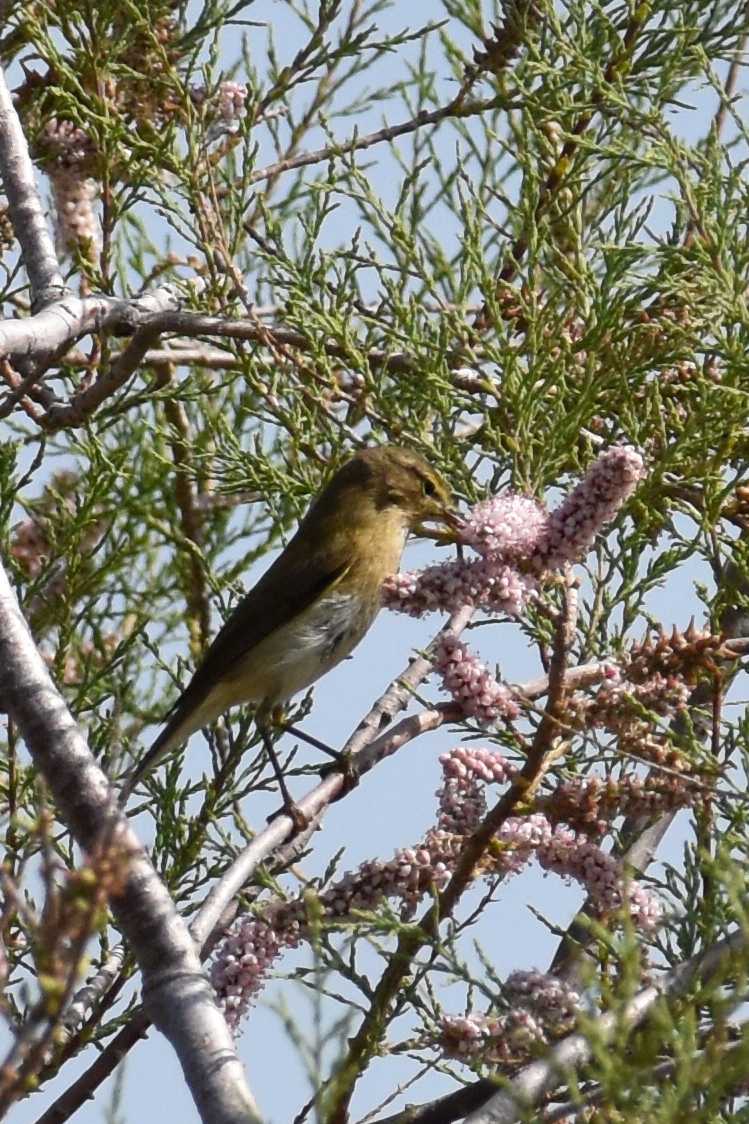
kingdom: Animalia
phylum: Chordata
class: Aves
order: Passeriformes
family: Phylloscopidae
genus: Phylloscopus
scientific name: Phylloscopus collybita
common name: Common chiffchaff
